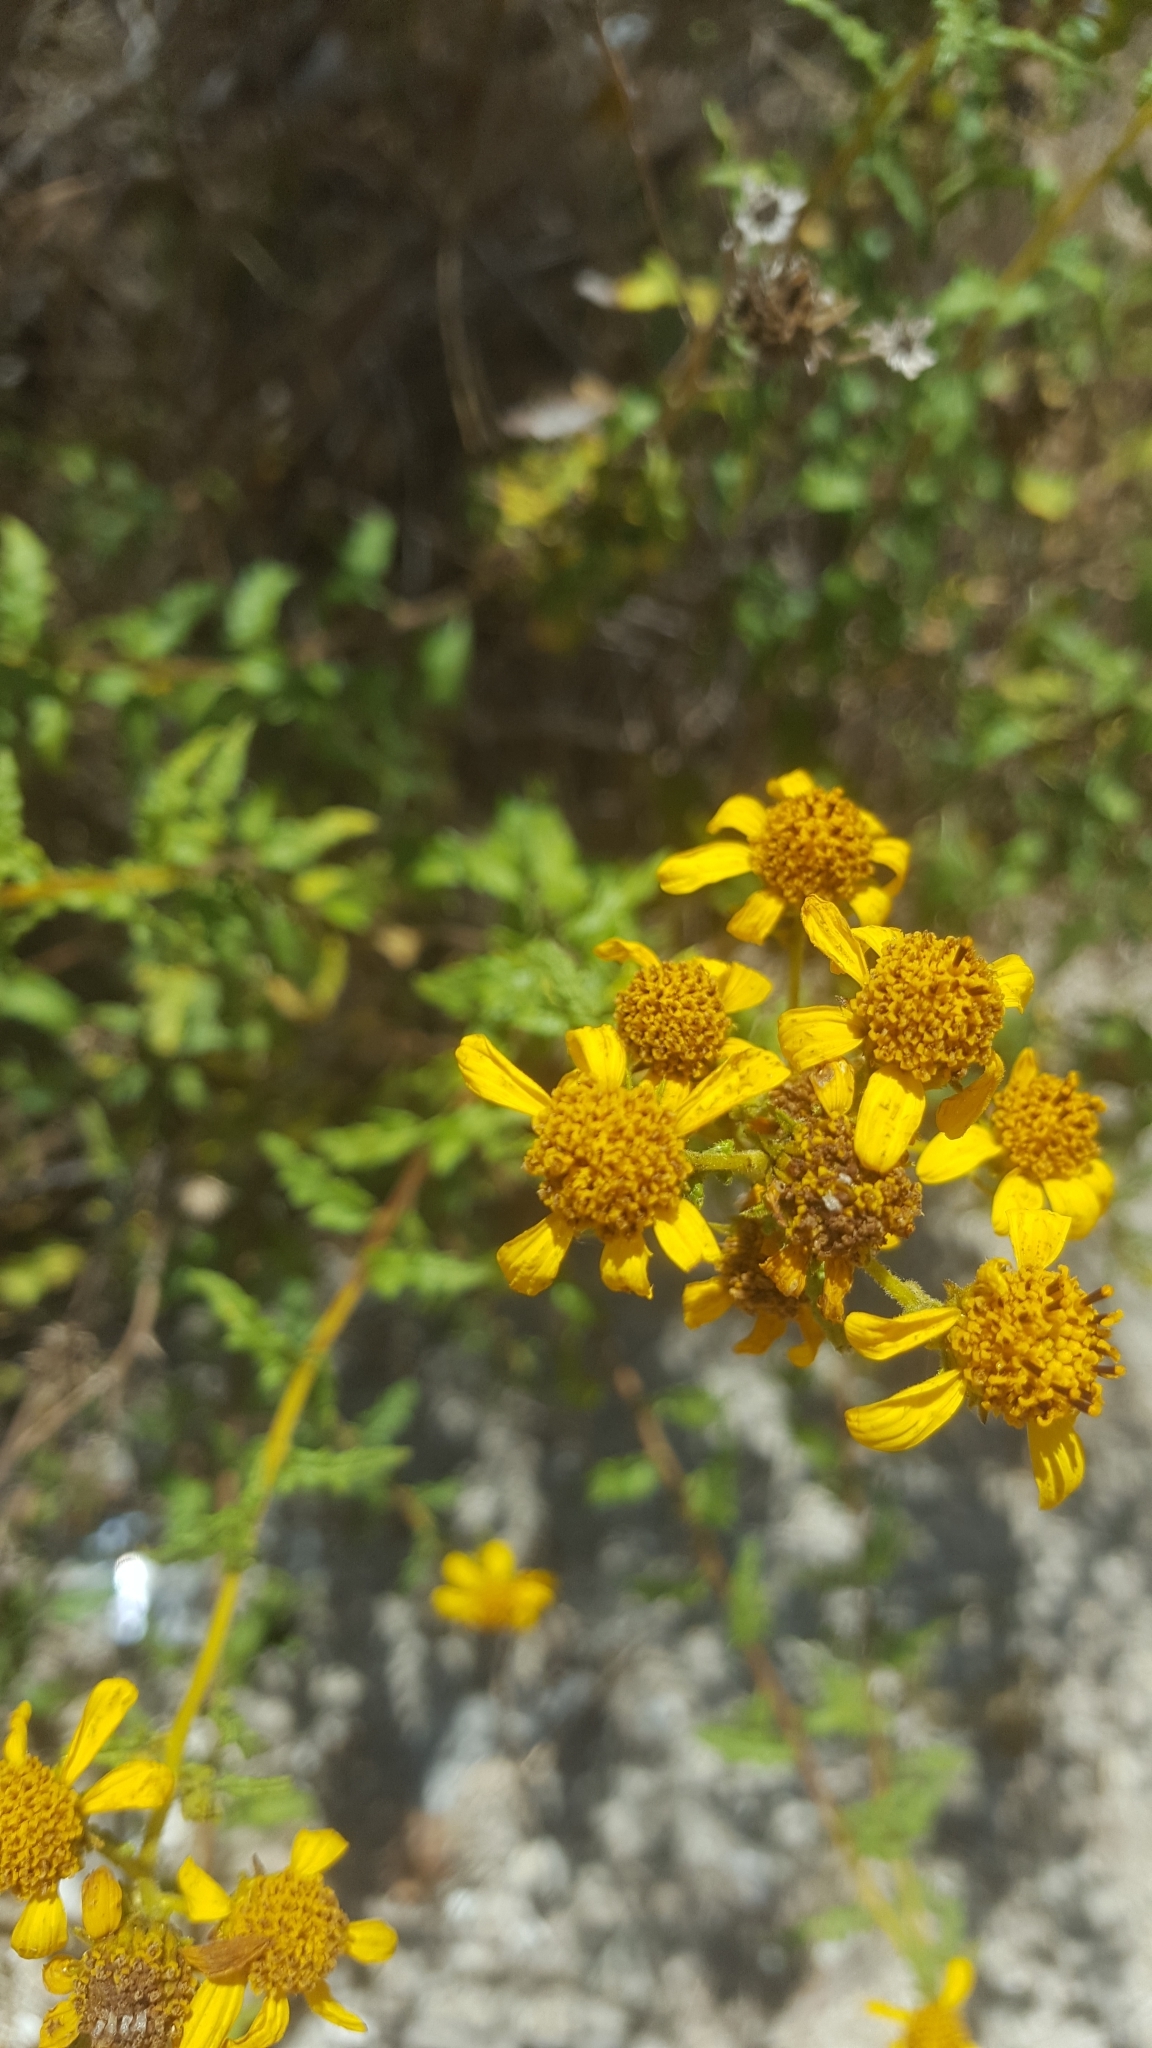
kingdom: Plantae
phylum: Tracheophyta
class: Magnoliopsida
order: Asterales
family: Asteraceae
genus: Bahiopsis
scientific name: Bahiopsis laciniata
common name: San diego county viguiera
